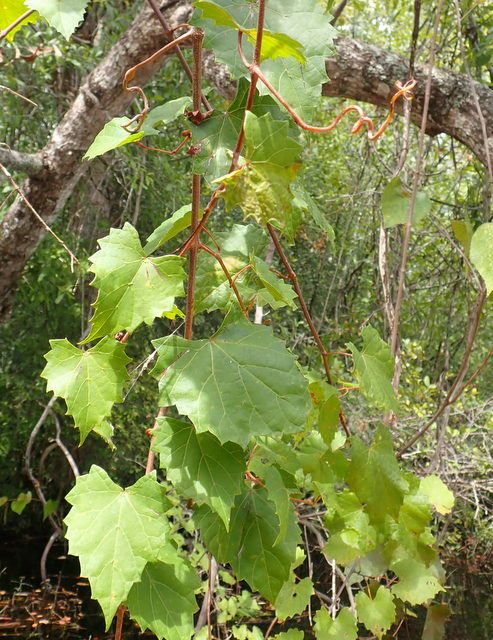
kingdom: Plantae
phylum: Tracheophyta
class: Magnoliopsida
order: Vitales
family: Vitaceae
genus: Vitis
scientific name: Vitis rotundifolia
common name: Muscadine grape
